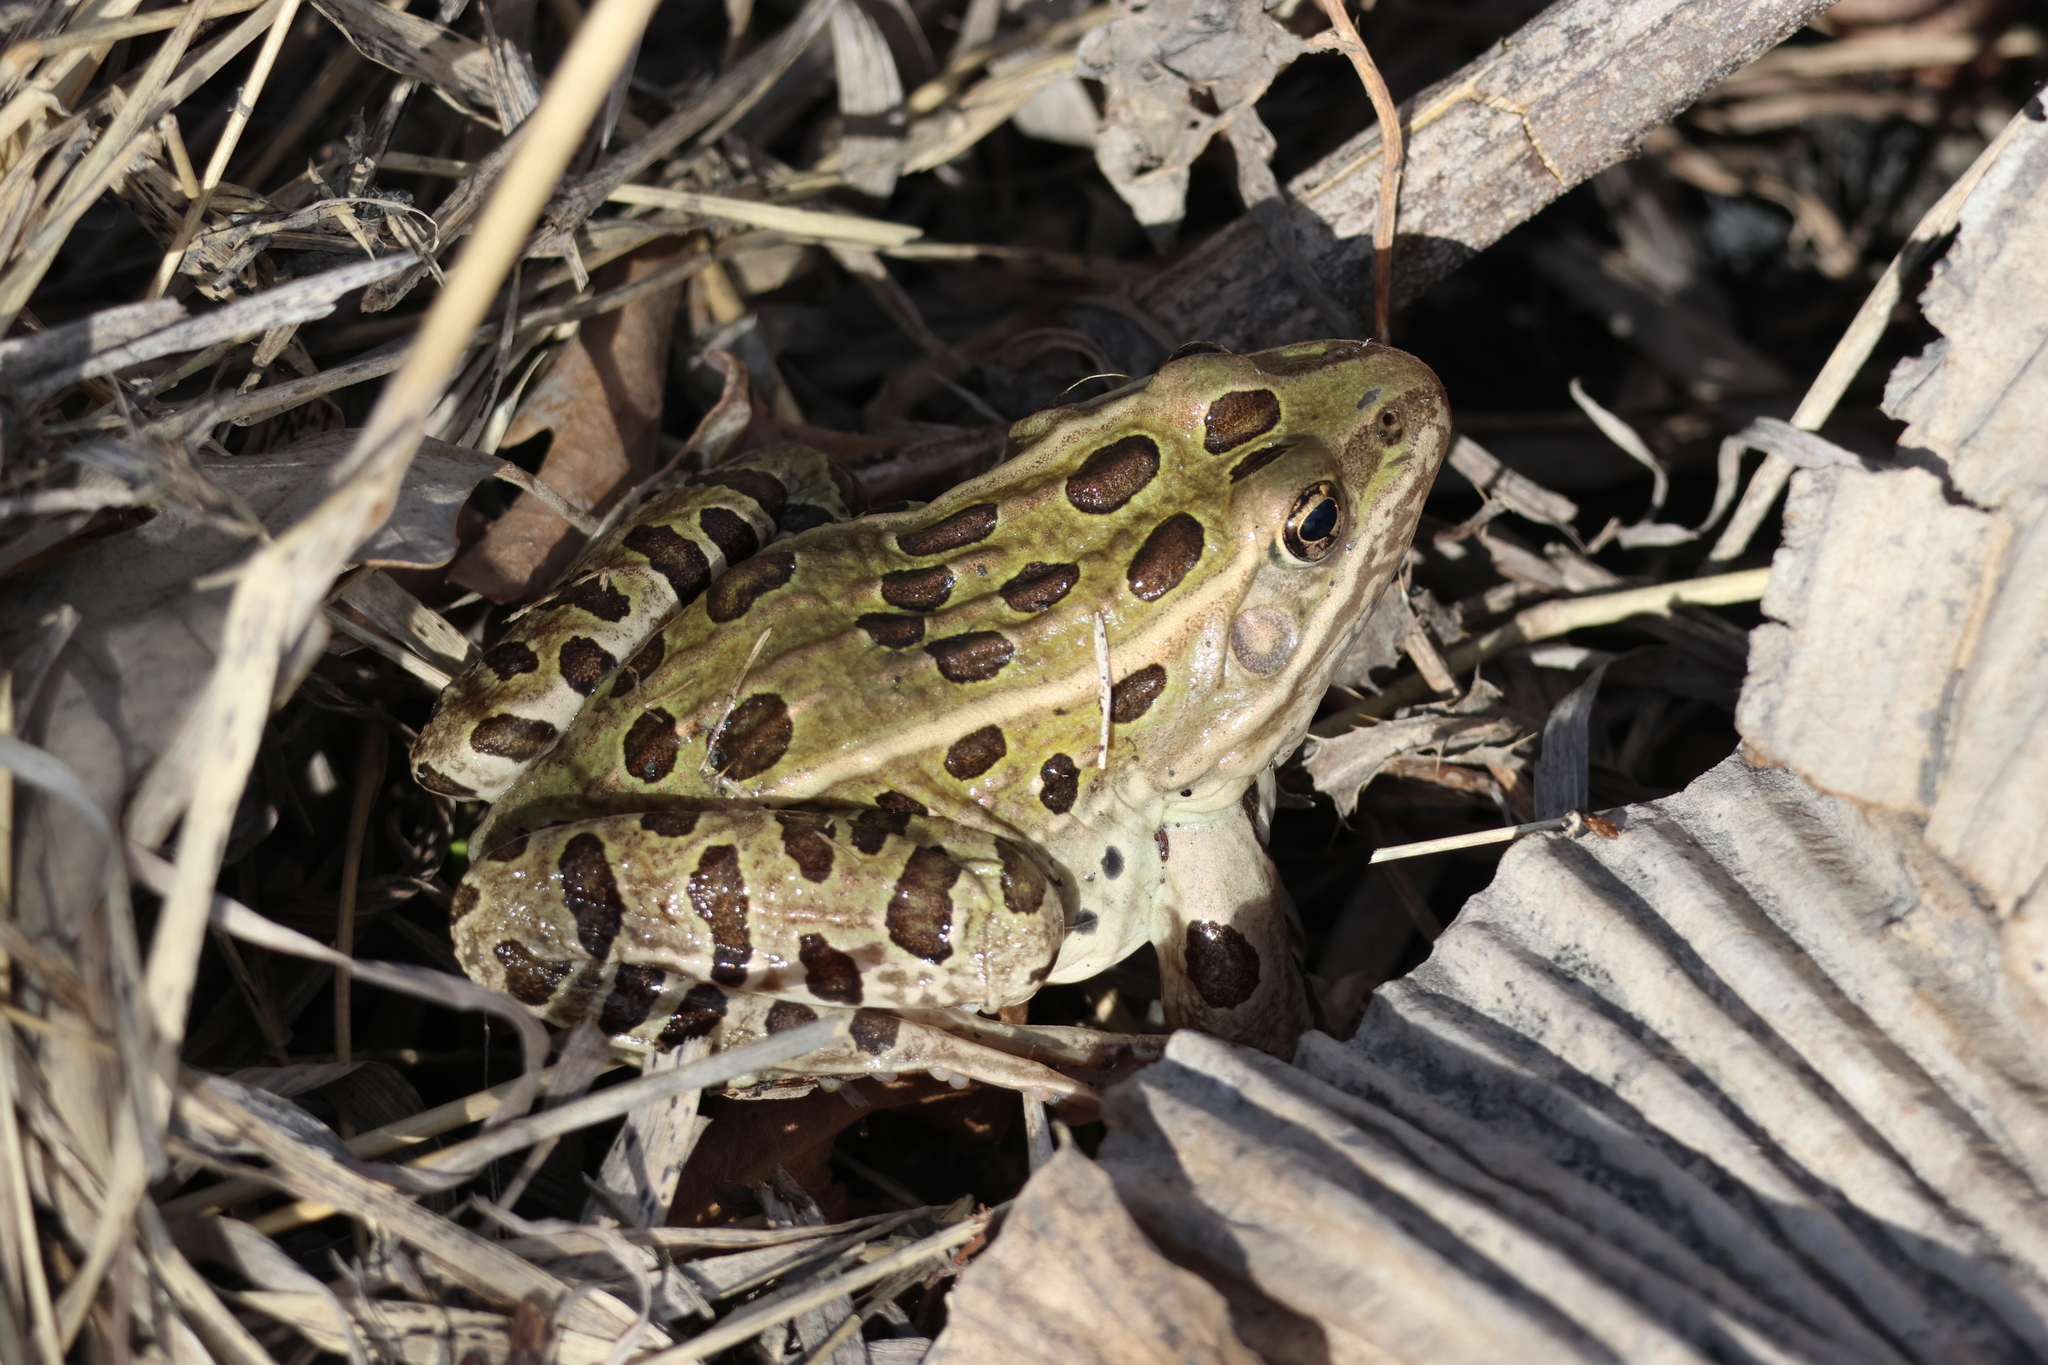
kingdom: Animalia
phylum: Chordata
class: Amphibia
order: Anura
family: Ranidae
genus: Lithobates
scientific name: Lithobates pipiens
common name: Northern leopard frog
